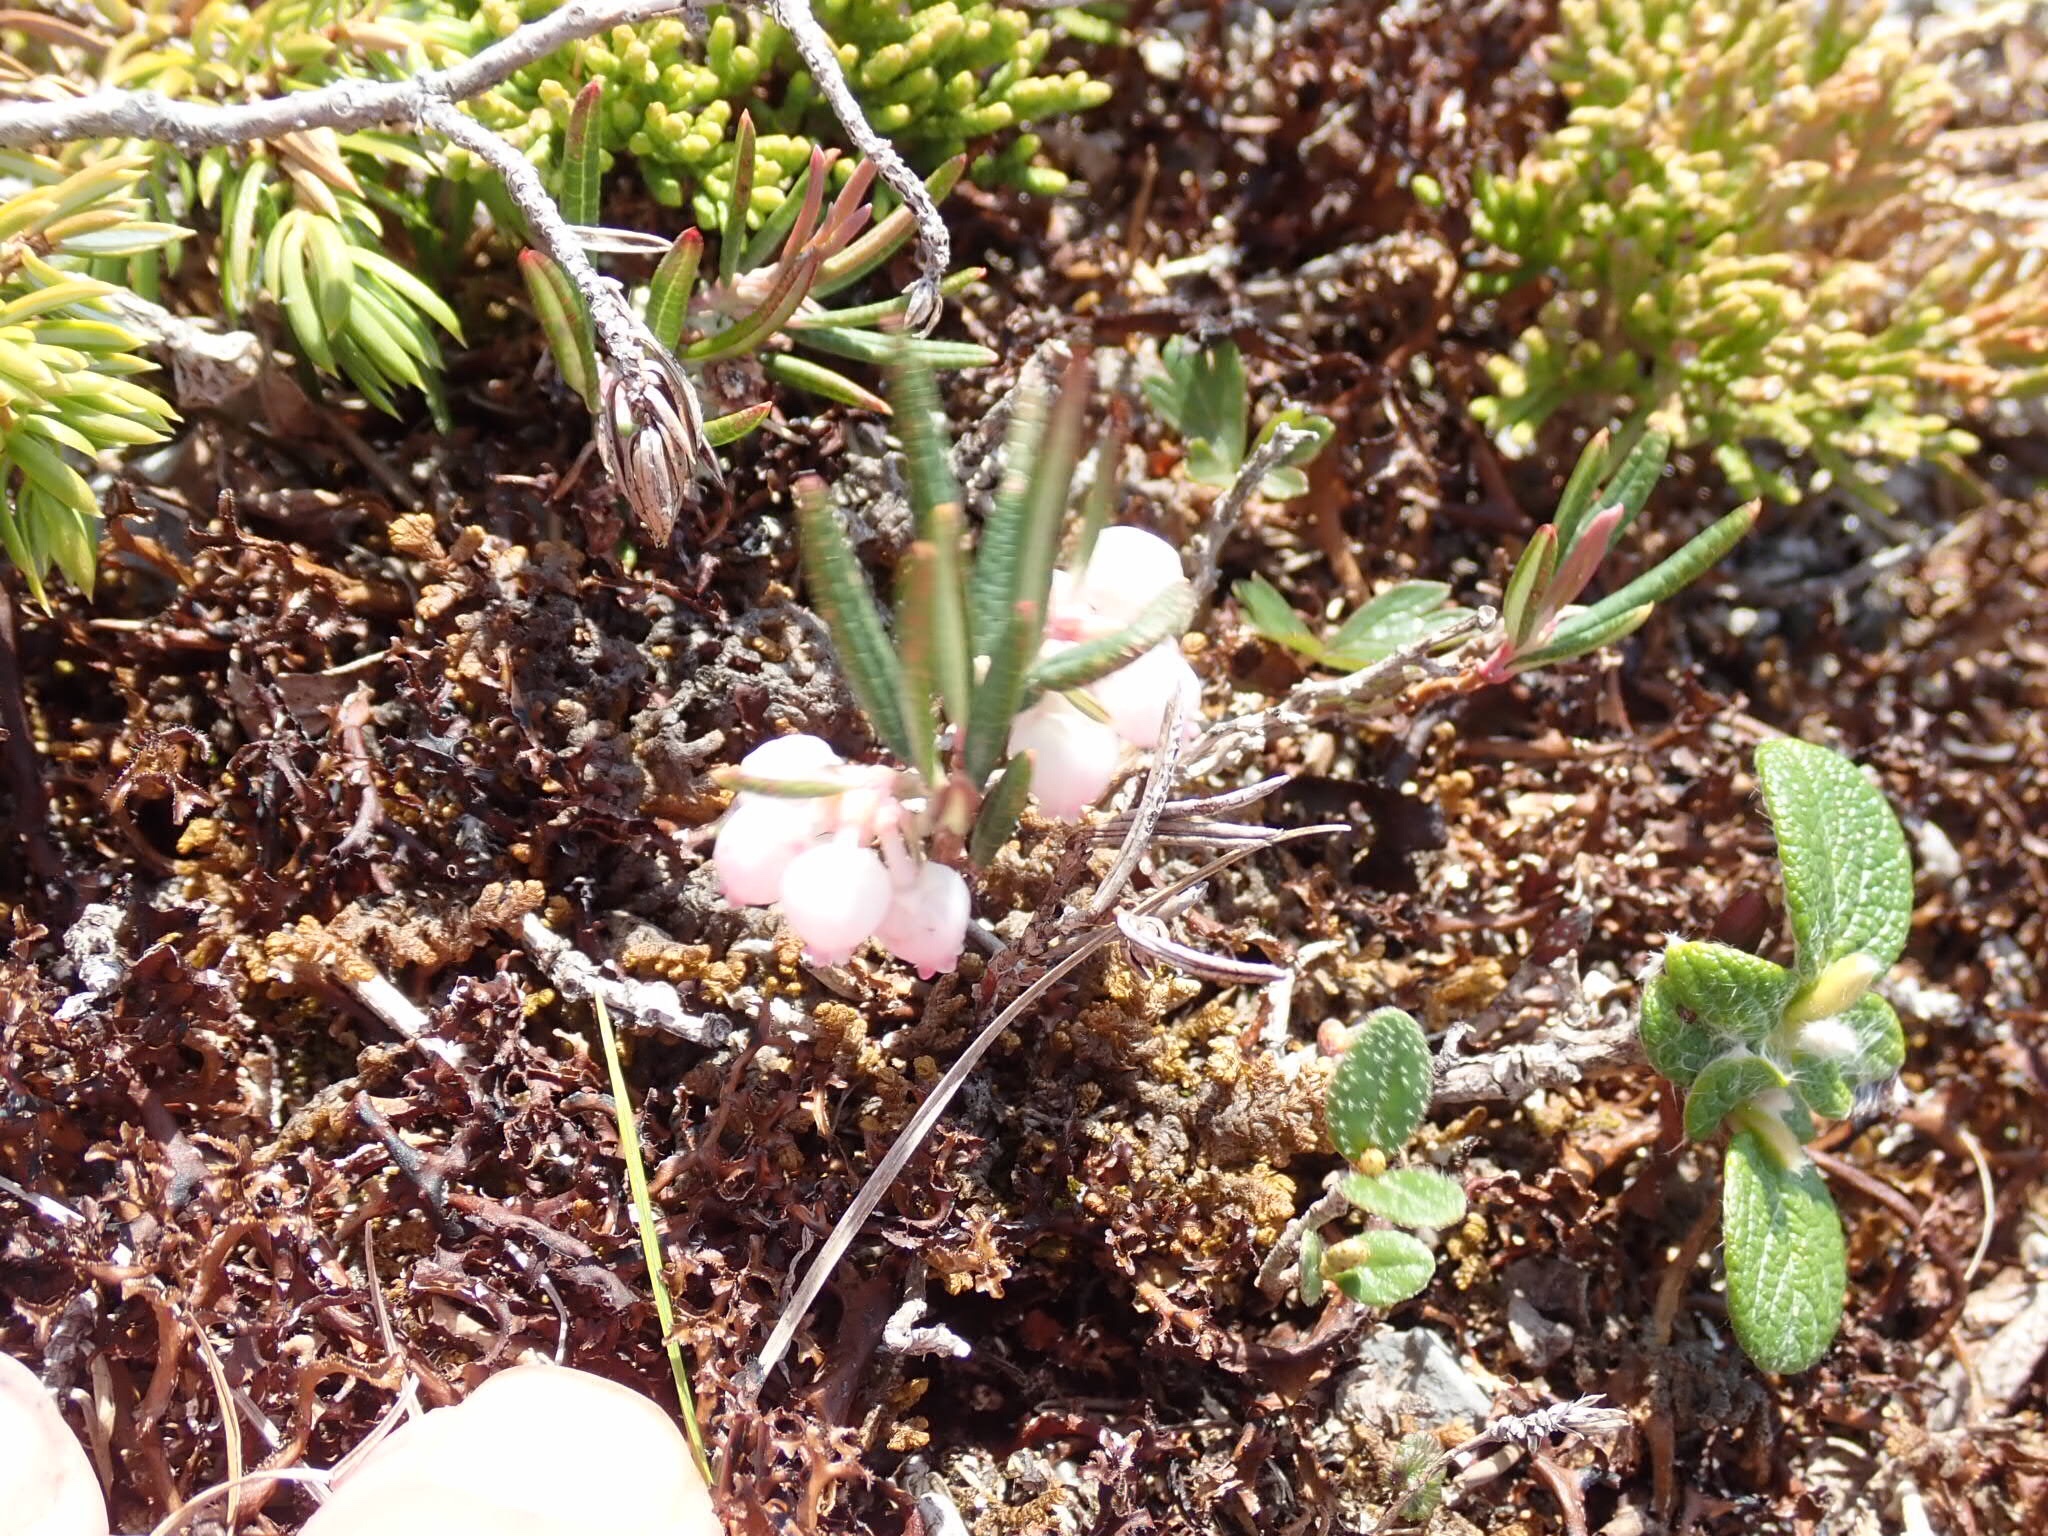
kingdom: Plantae
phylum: Tracheophyta
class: Magnoliopsida
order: Ericales
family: Ericaceae
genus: Andromeda
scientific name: Andromeda polifolia
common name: Bog-rosemary
